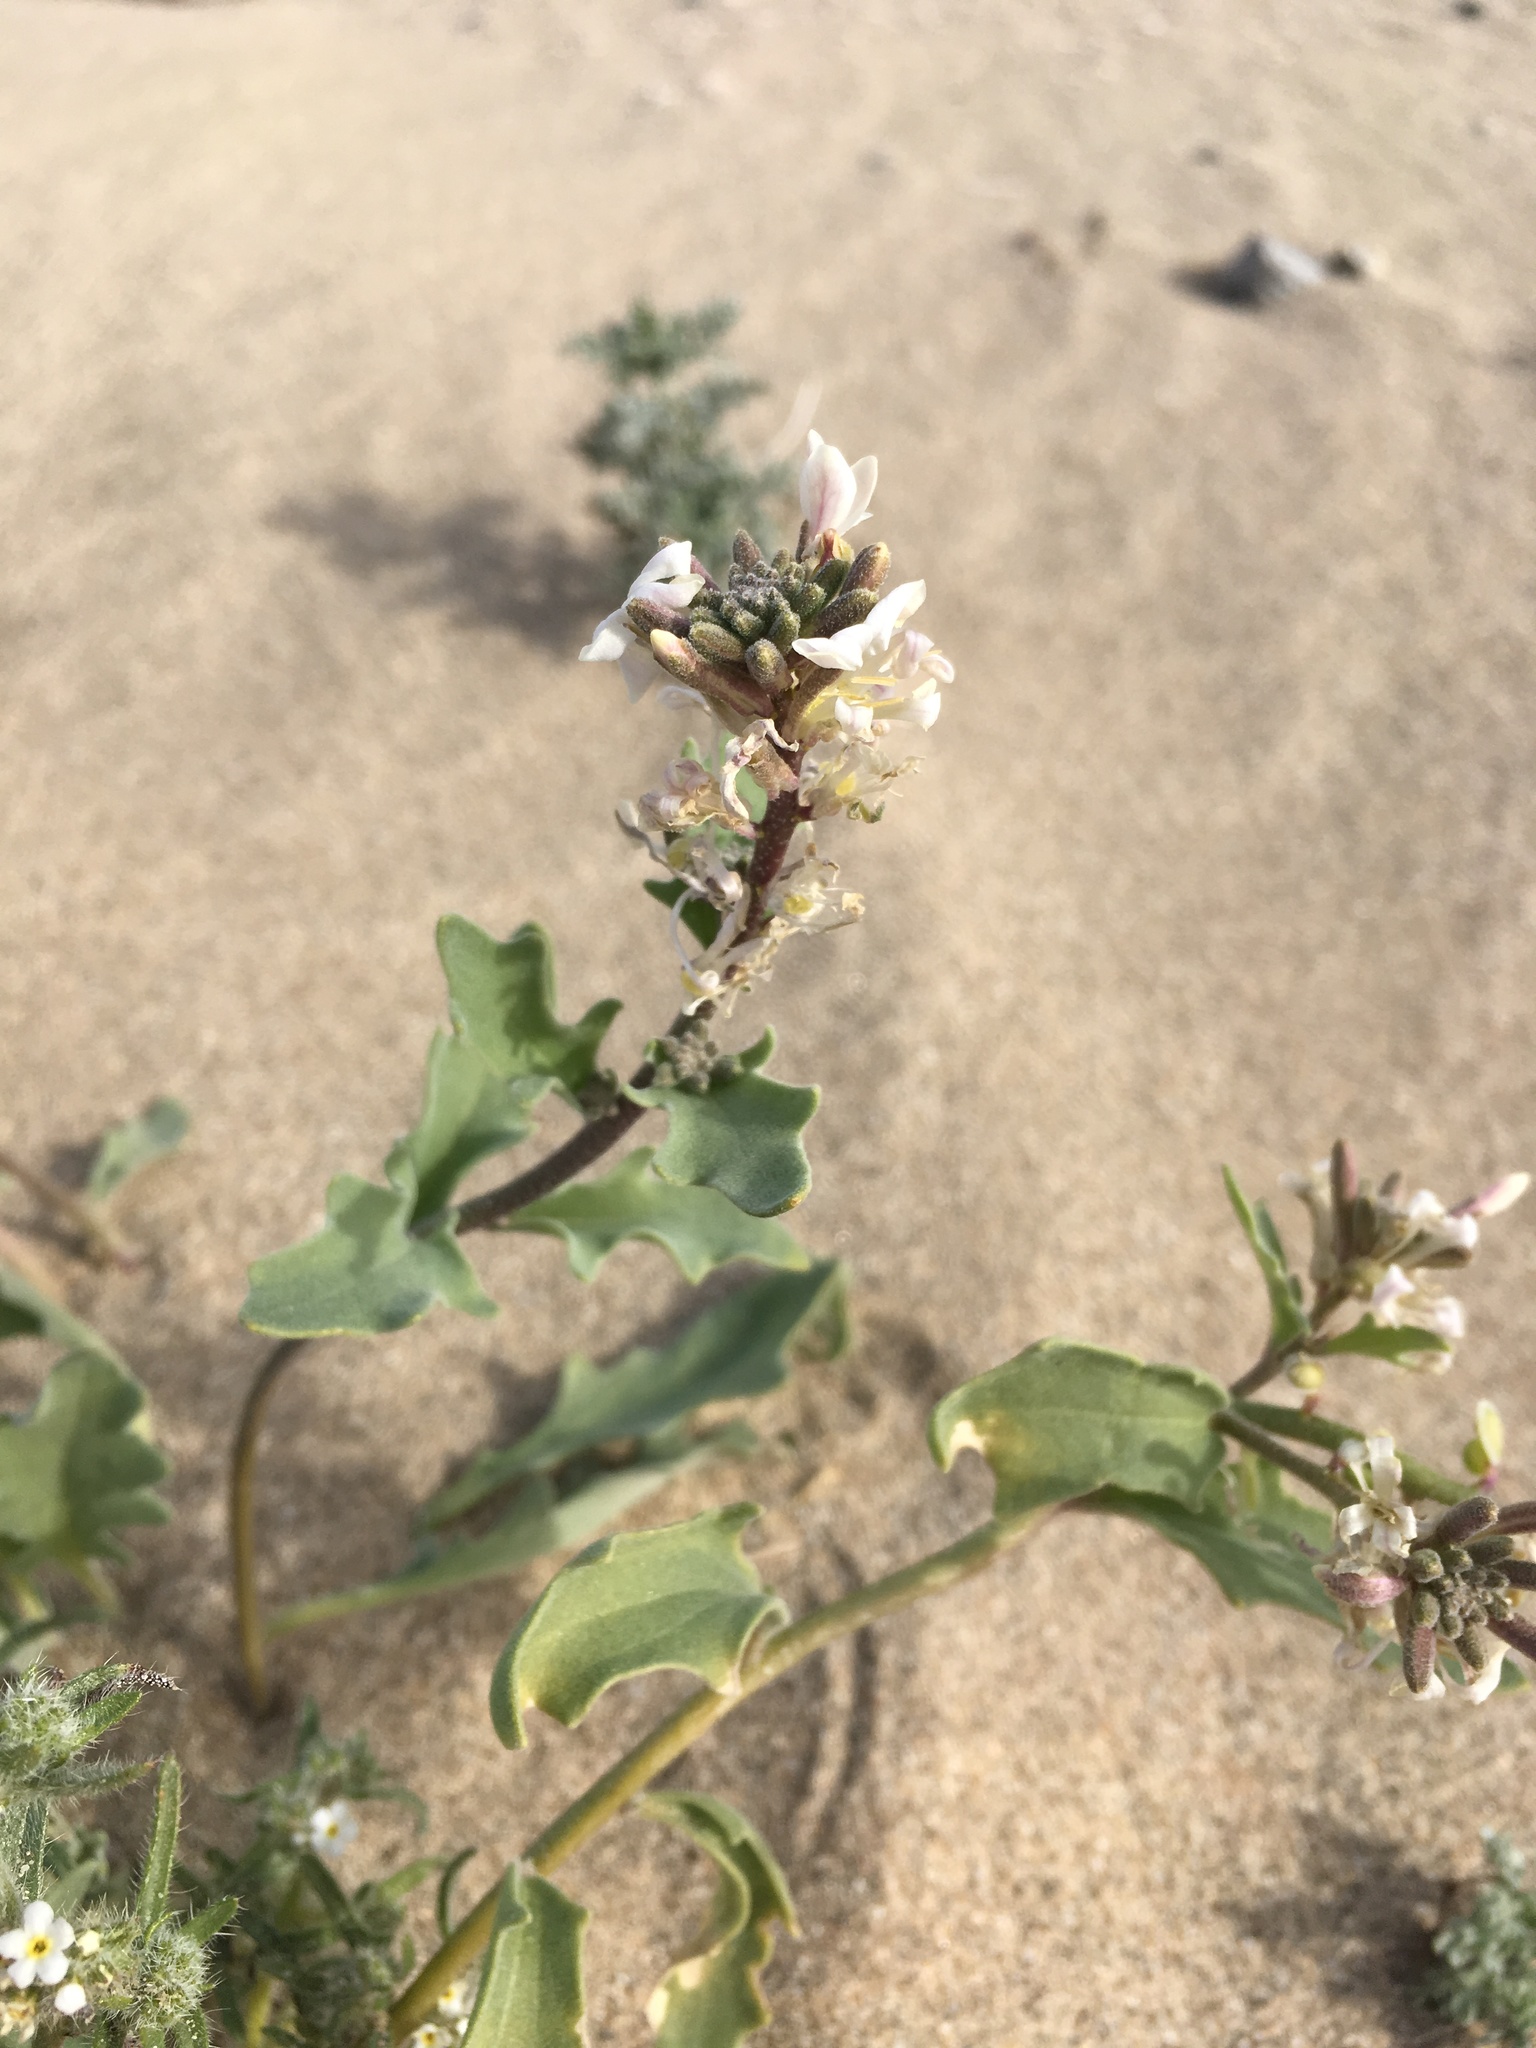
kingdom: Plantae
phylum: Tracheophyta
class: Magnoliopsida
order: Brassicales
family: Brassicaceae
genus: Dithyrea
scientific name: Dithyrea californica
